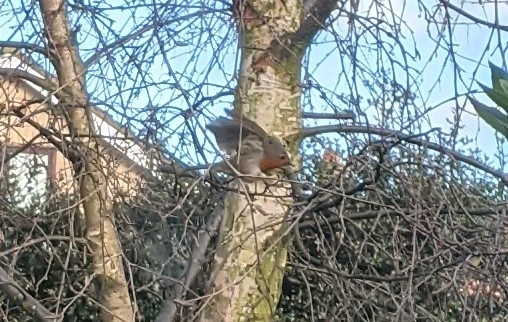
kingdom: Animalia
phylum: Chordata
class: Aves
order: Passeriformes
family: Muscicapidae
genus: Erithacus
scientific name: Erithacus rubecula
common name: European robin
